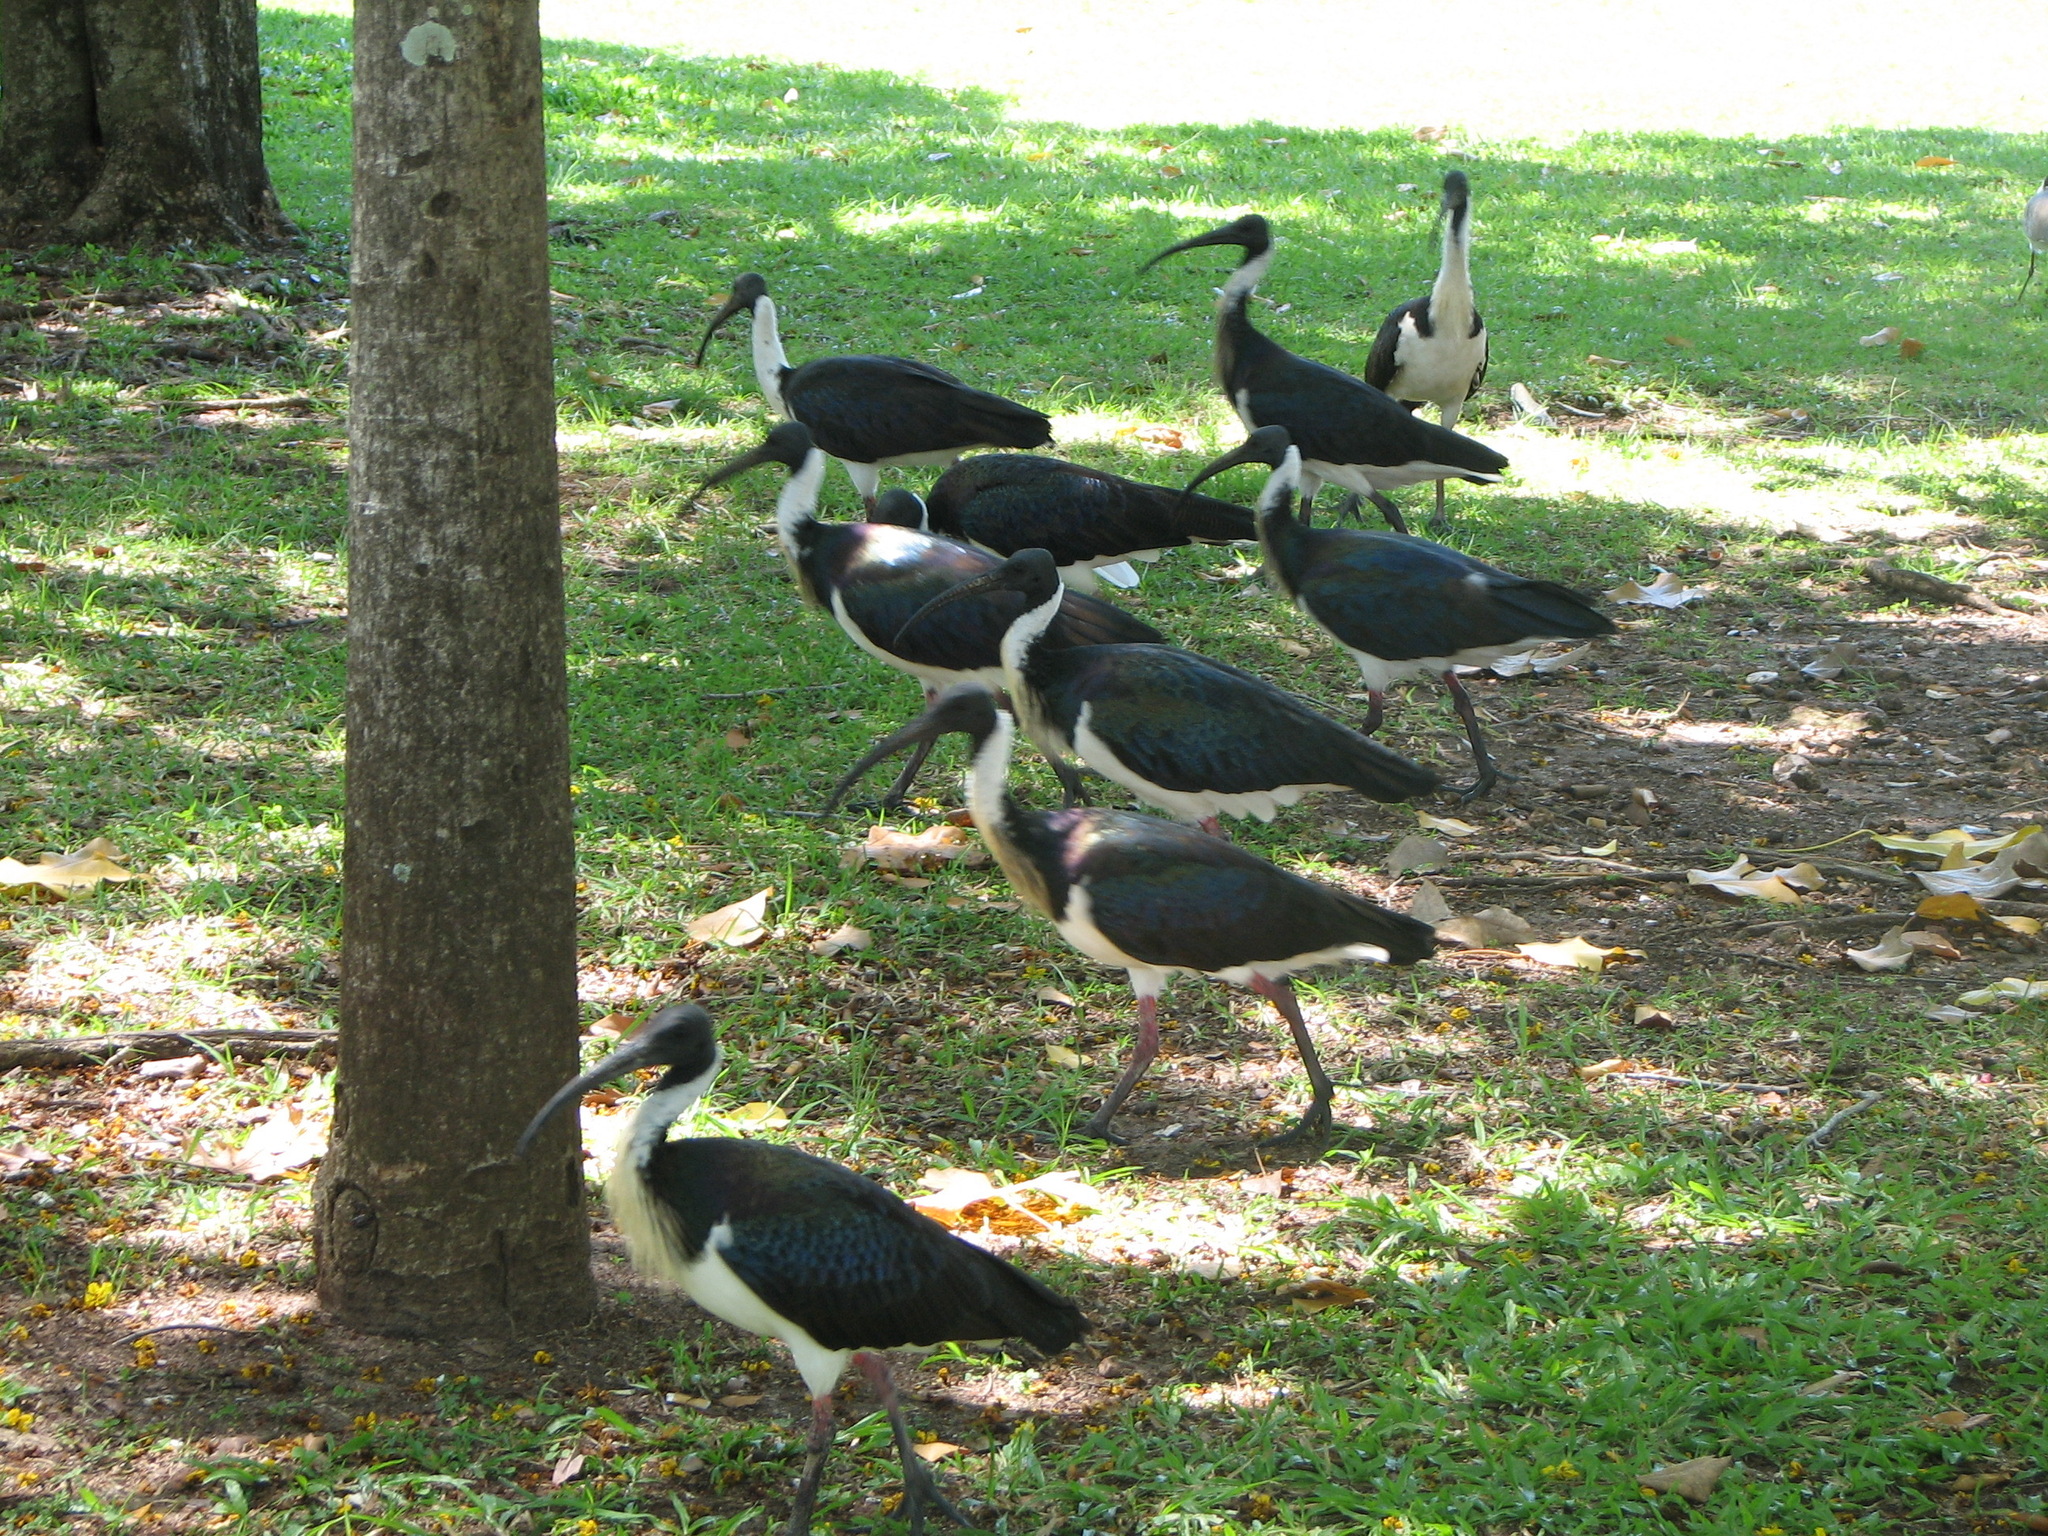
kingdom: Animalia
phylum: Chordata
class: Aves
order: Pelecaniformes
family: Threskiornithidae
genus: Threskiornis
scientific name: Threskiornis spinicollis
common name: Straw-necked ibis
